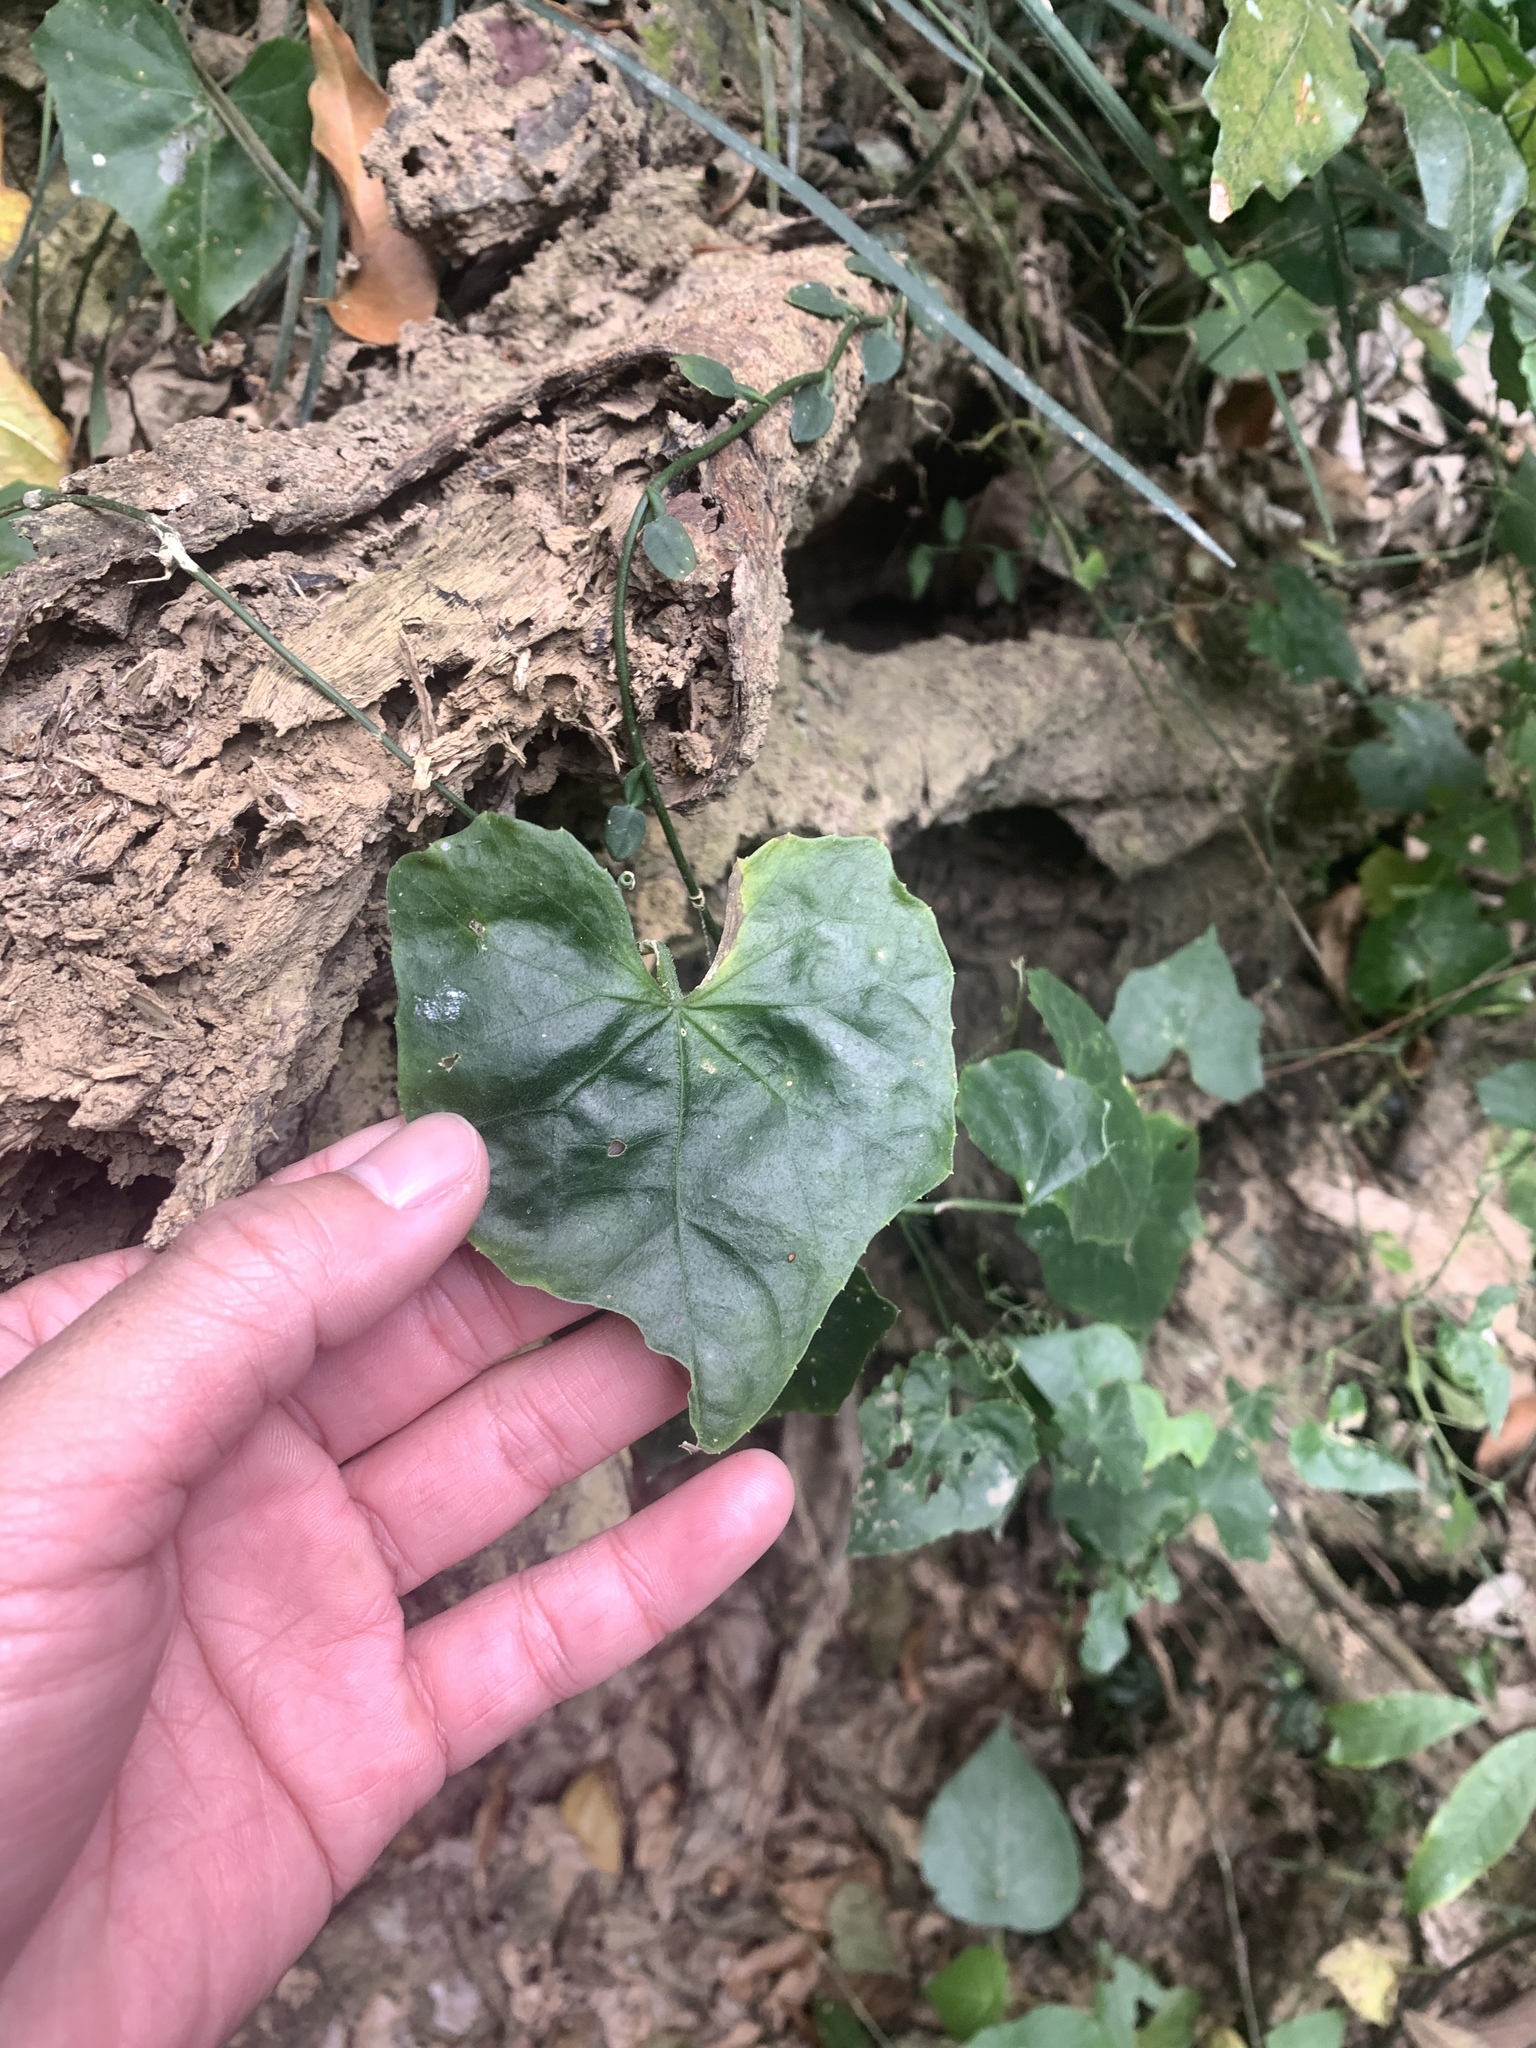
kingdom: Plantae
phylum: Tracheophyta
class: Magnoliopsida
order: Cucurbitales
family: Cucurbitaceae
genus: Melothria
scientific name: Melothria pendula
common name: Creeping-cucumber
